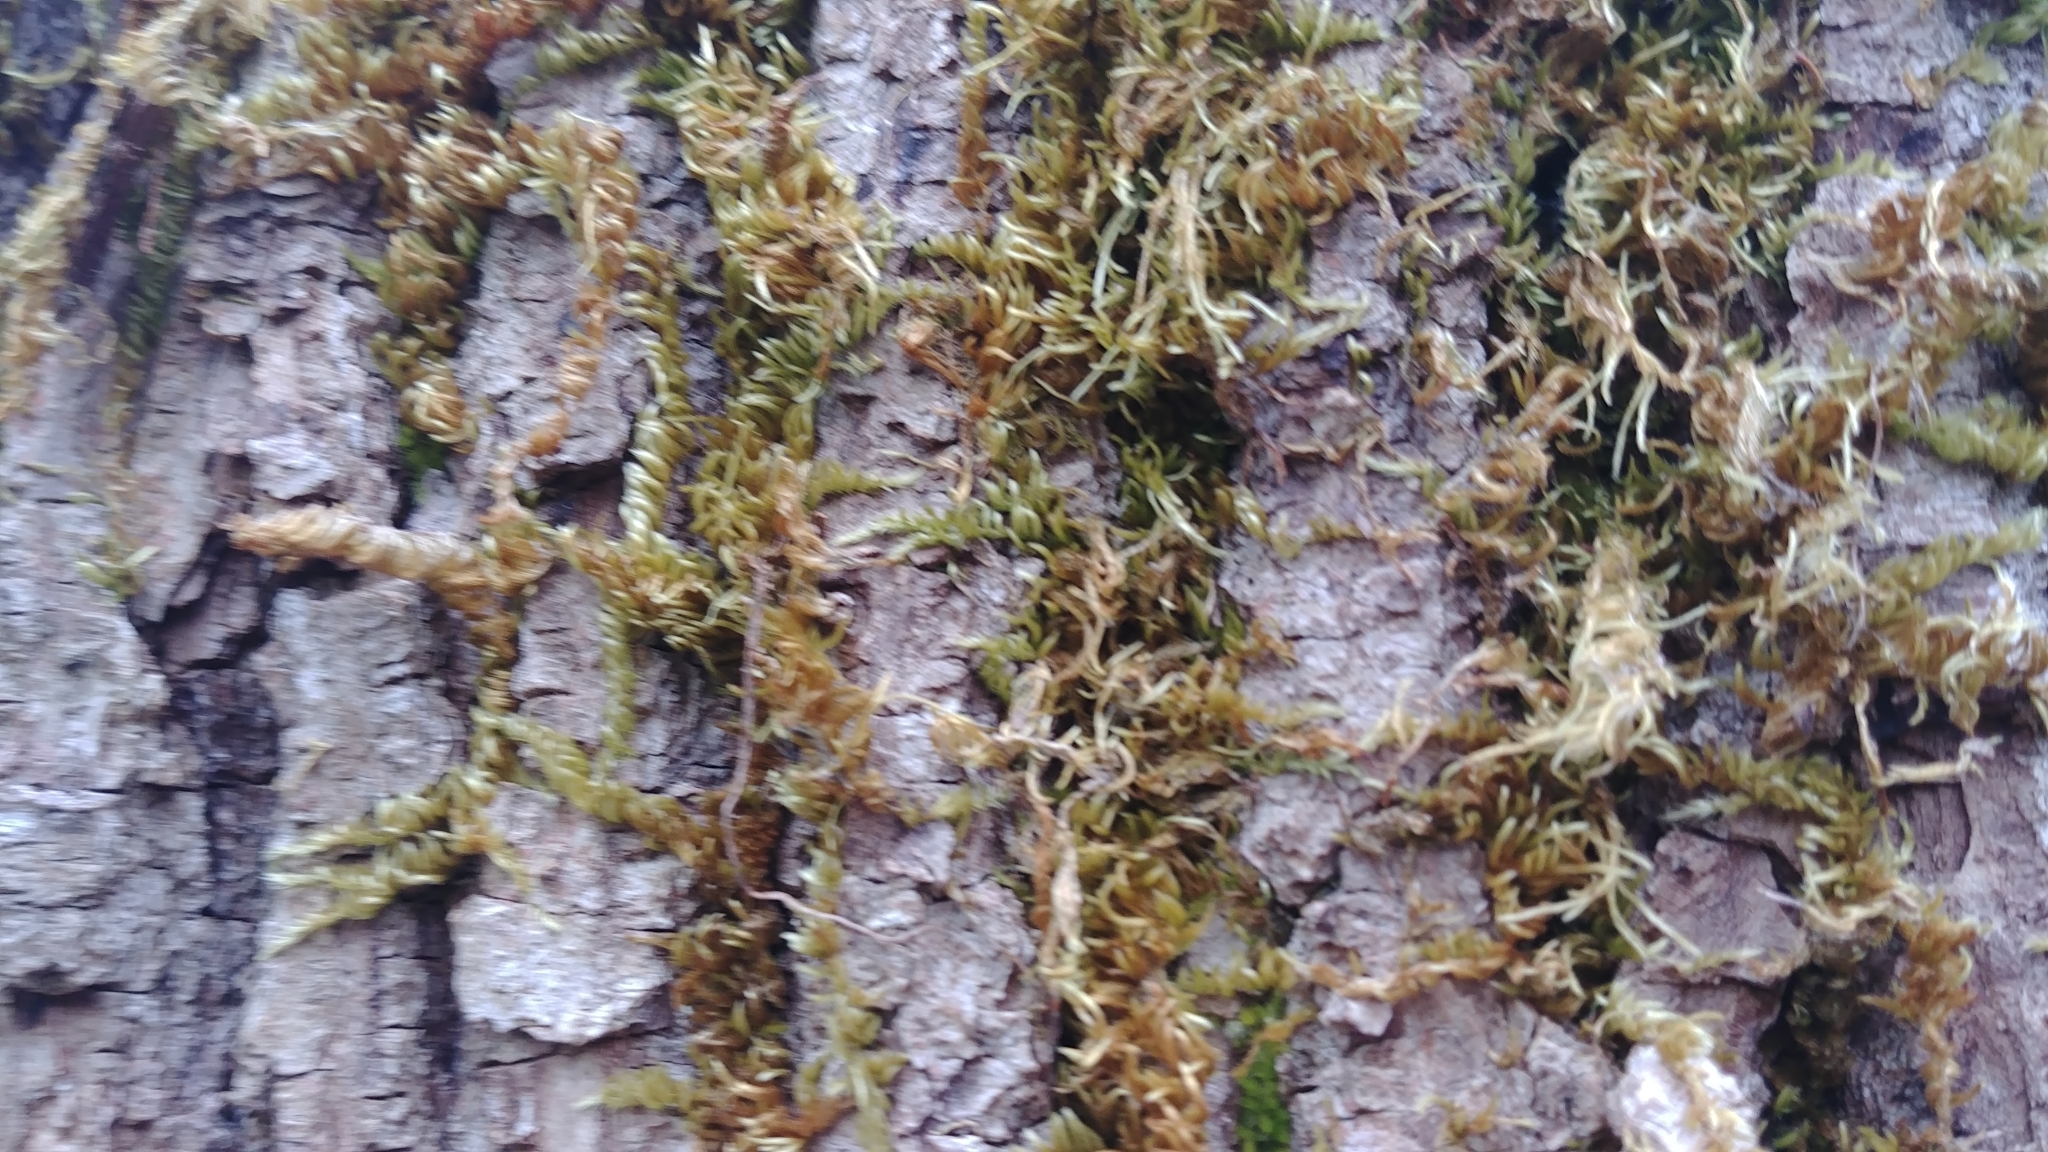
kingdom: Plantae
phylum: Bryophyta
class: Bryopsida
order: Hypnales
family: Brachytheciaceae
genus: Homalothecium
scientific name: Homalothecium nuttallii
